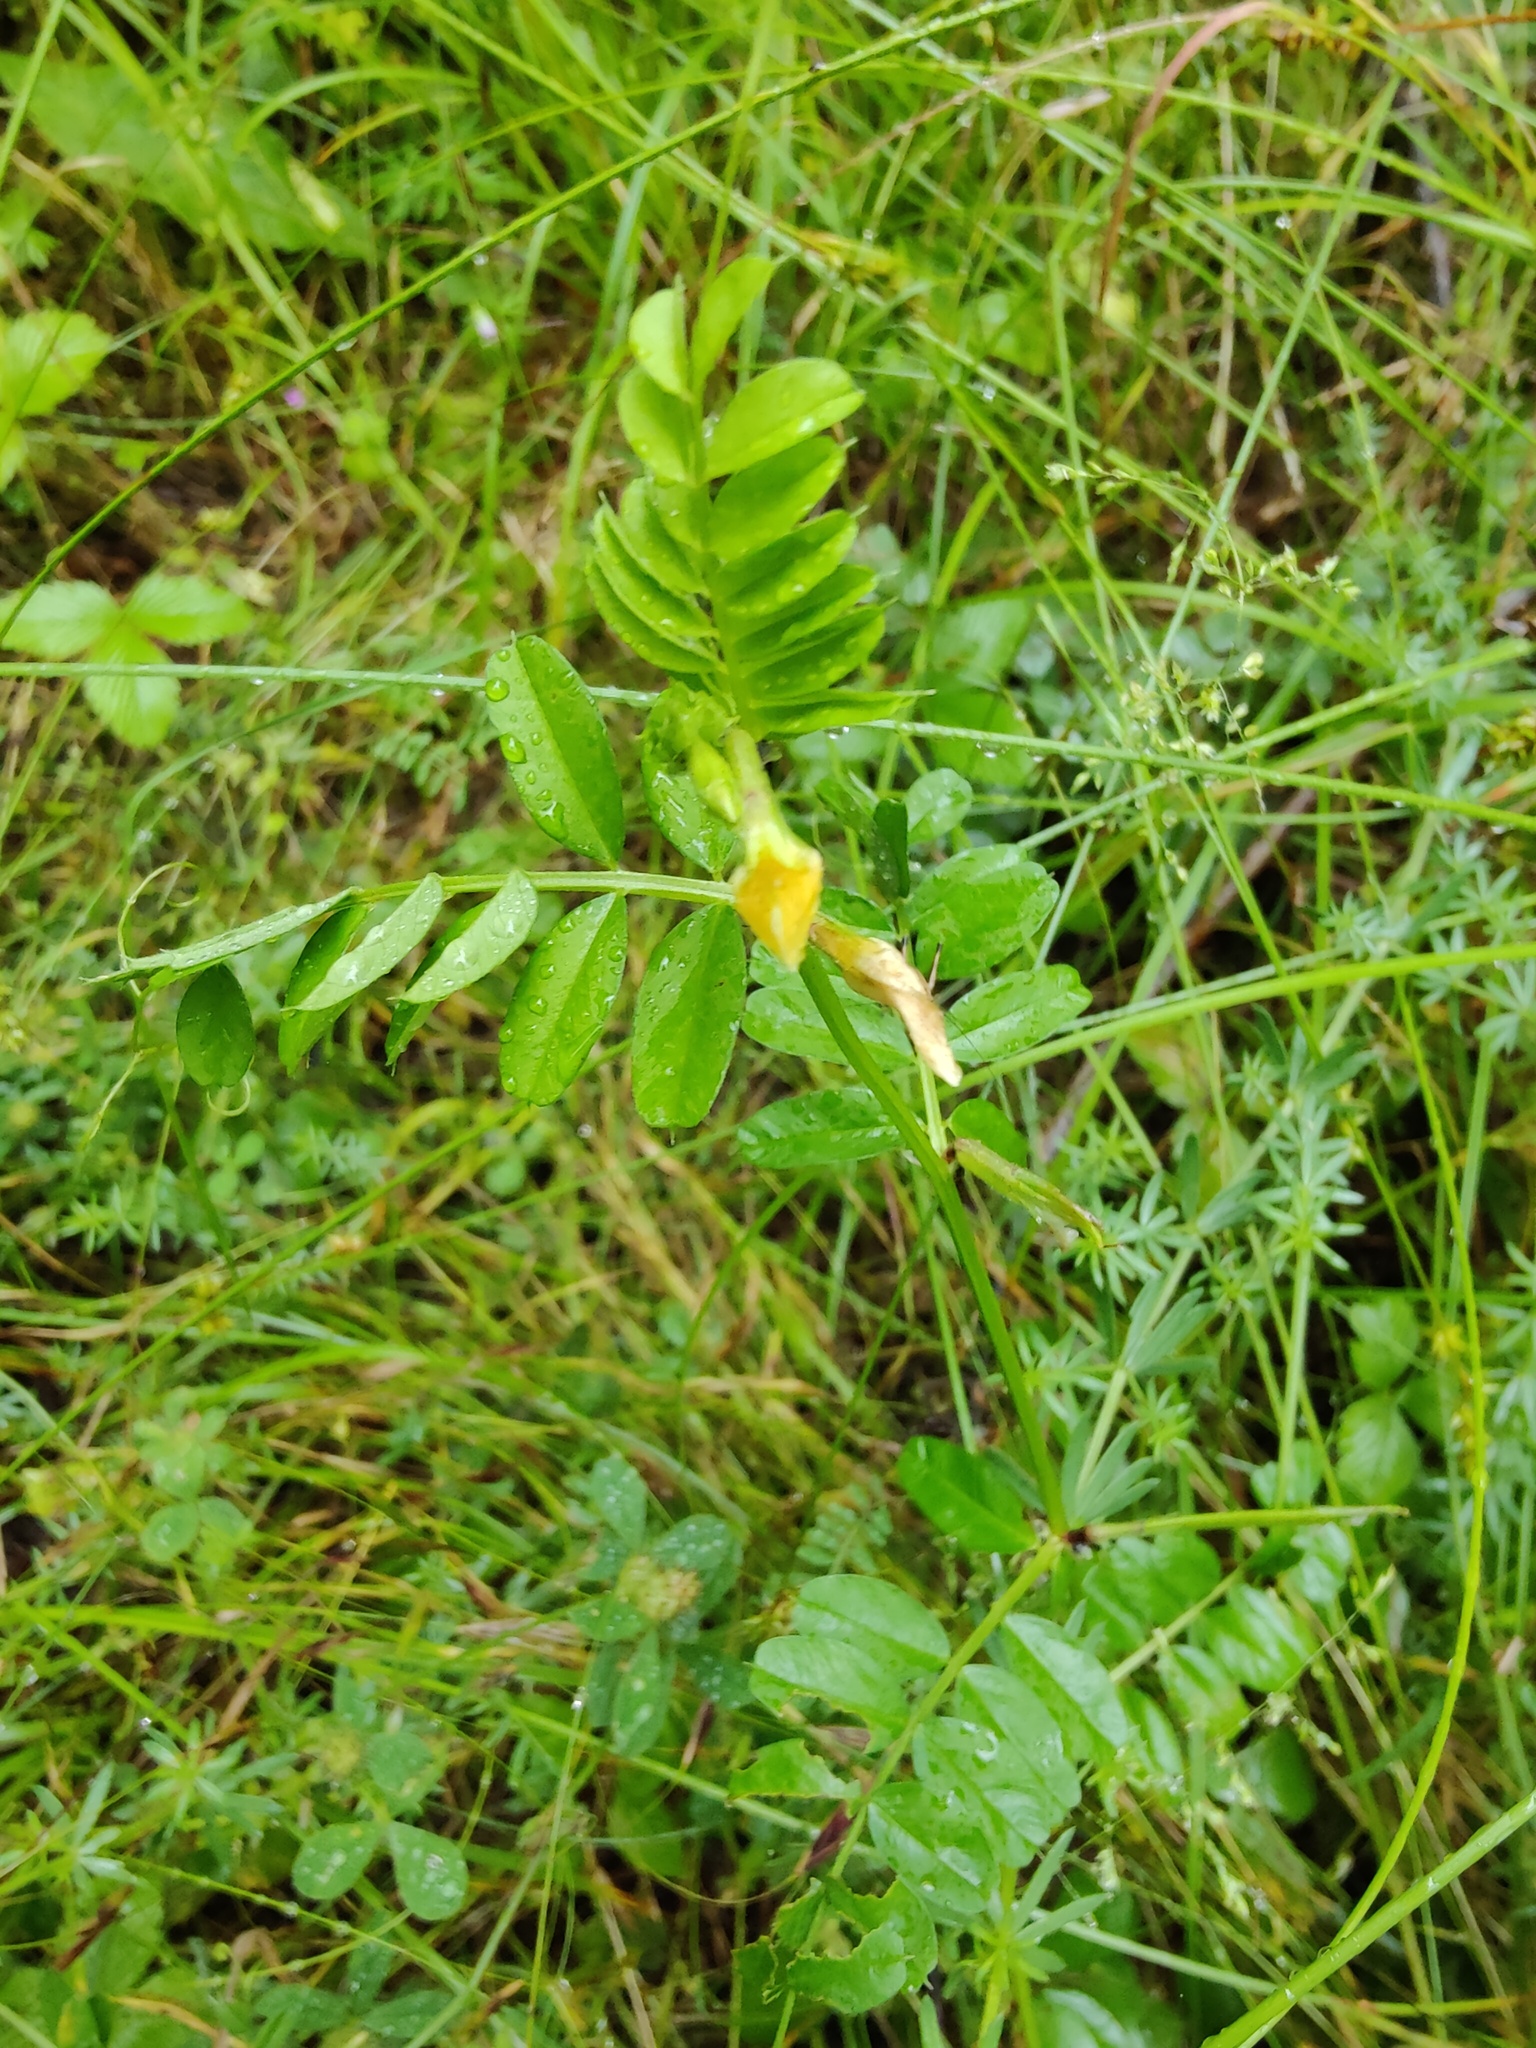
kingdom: Plantae
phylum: Tracheophyta
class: Magnoliopsida
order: Fabales
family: Fabaceae
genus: Vicia
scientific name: Vicia grandiflora
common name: Large yellow vetch
